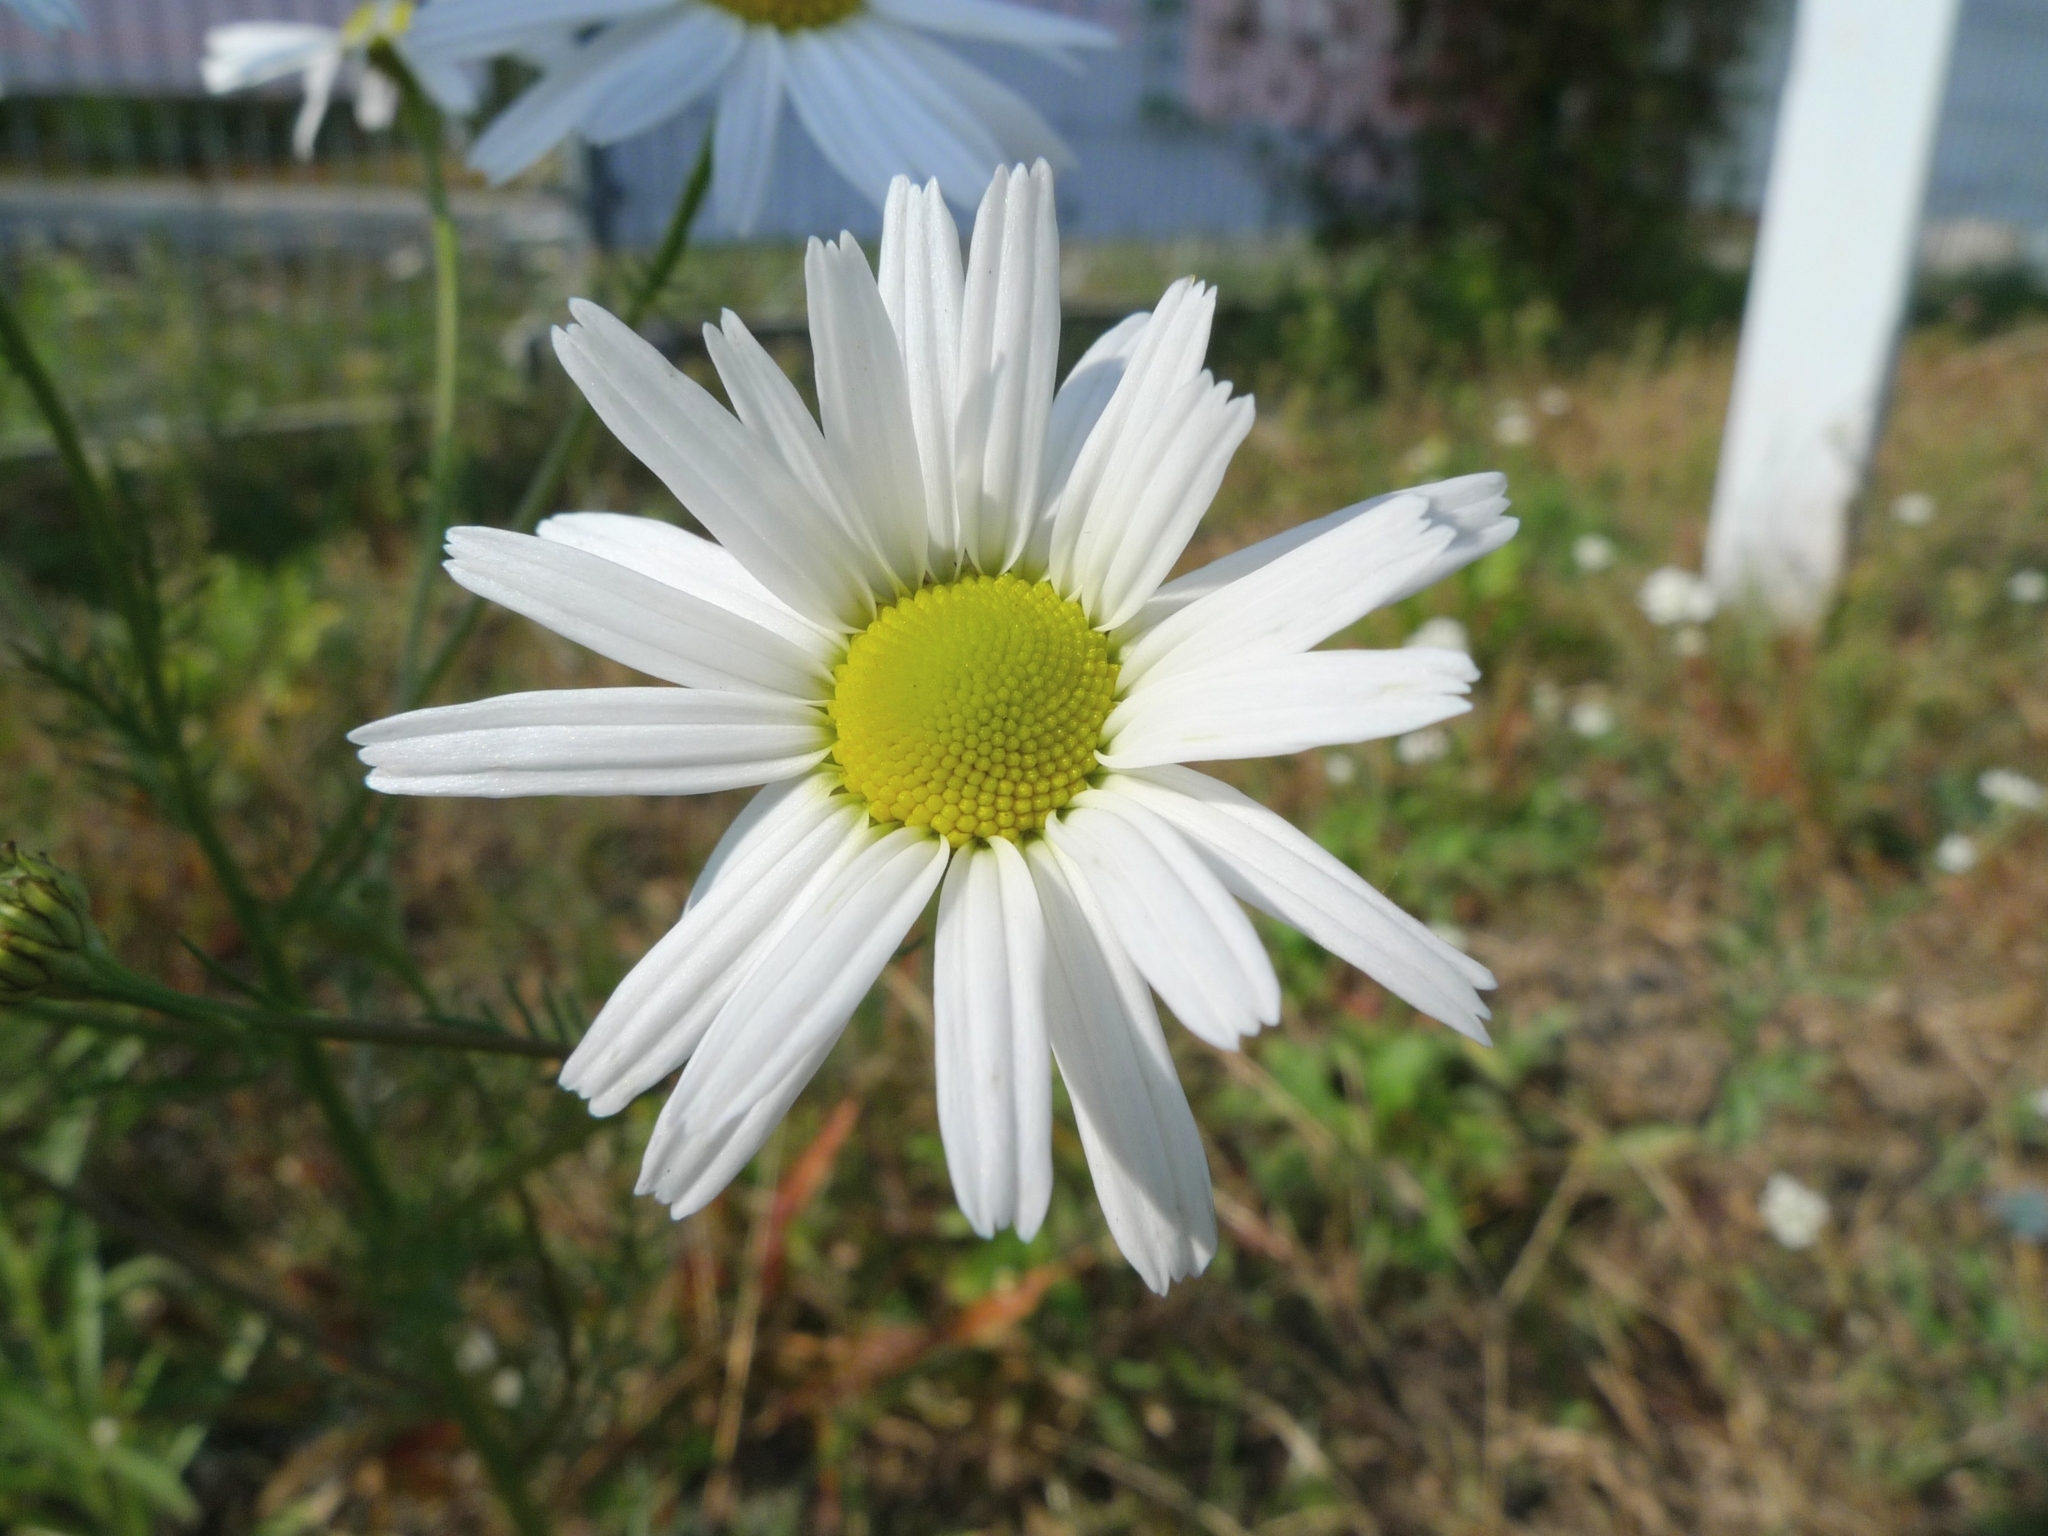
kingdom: Plantae
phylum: Tracheophyta
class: Magnoliopsida
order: Asterales
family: Asteraceae
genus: Tripleurospermum
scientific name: Tripleurospermum inodorum
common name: Scentless mayweed
